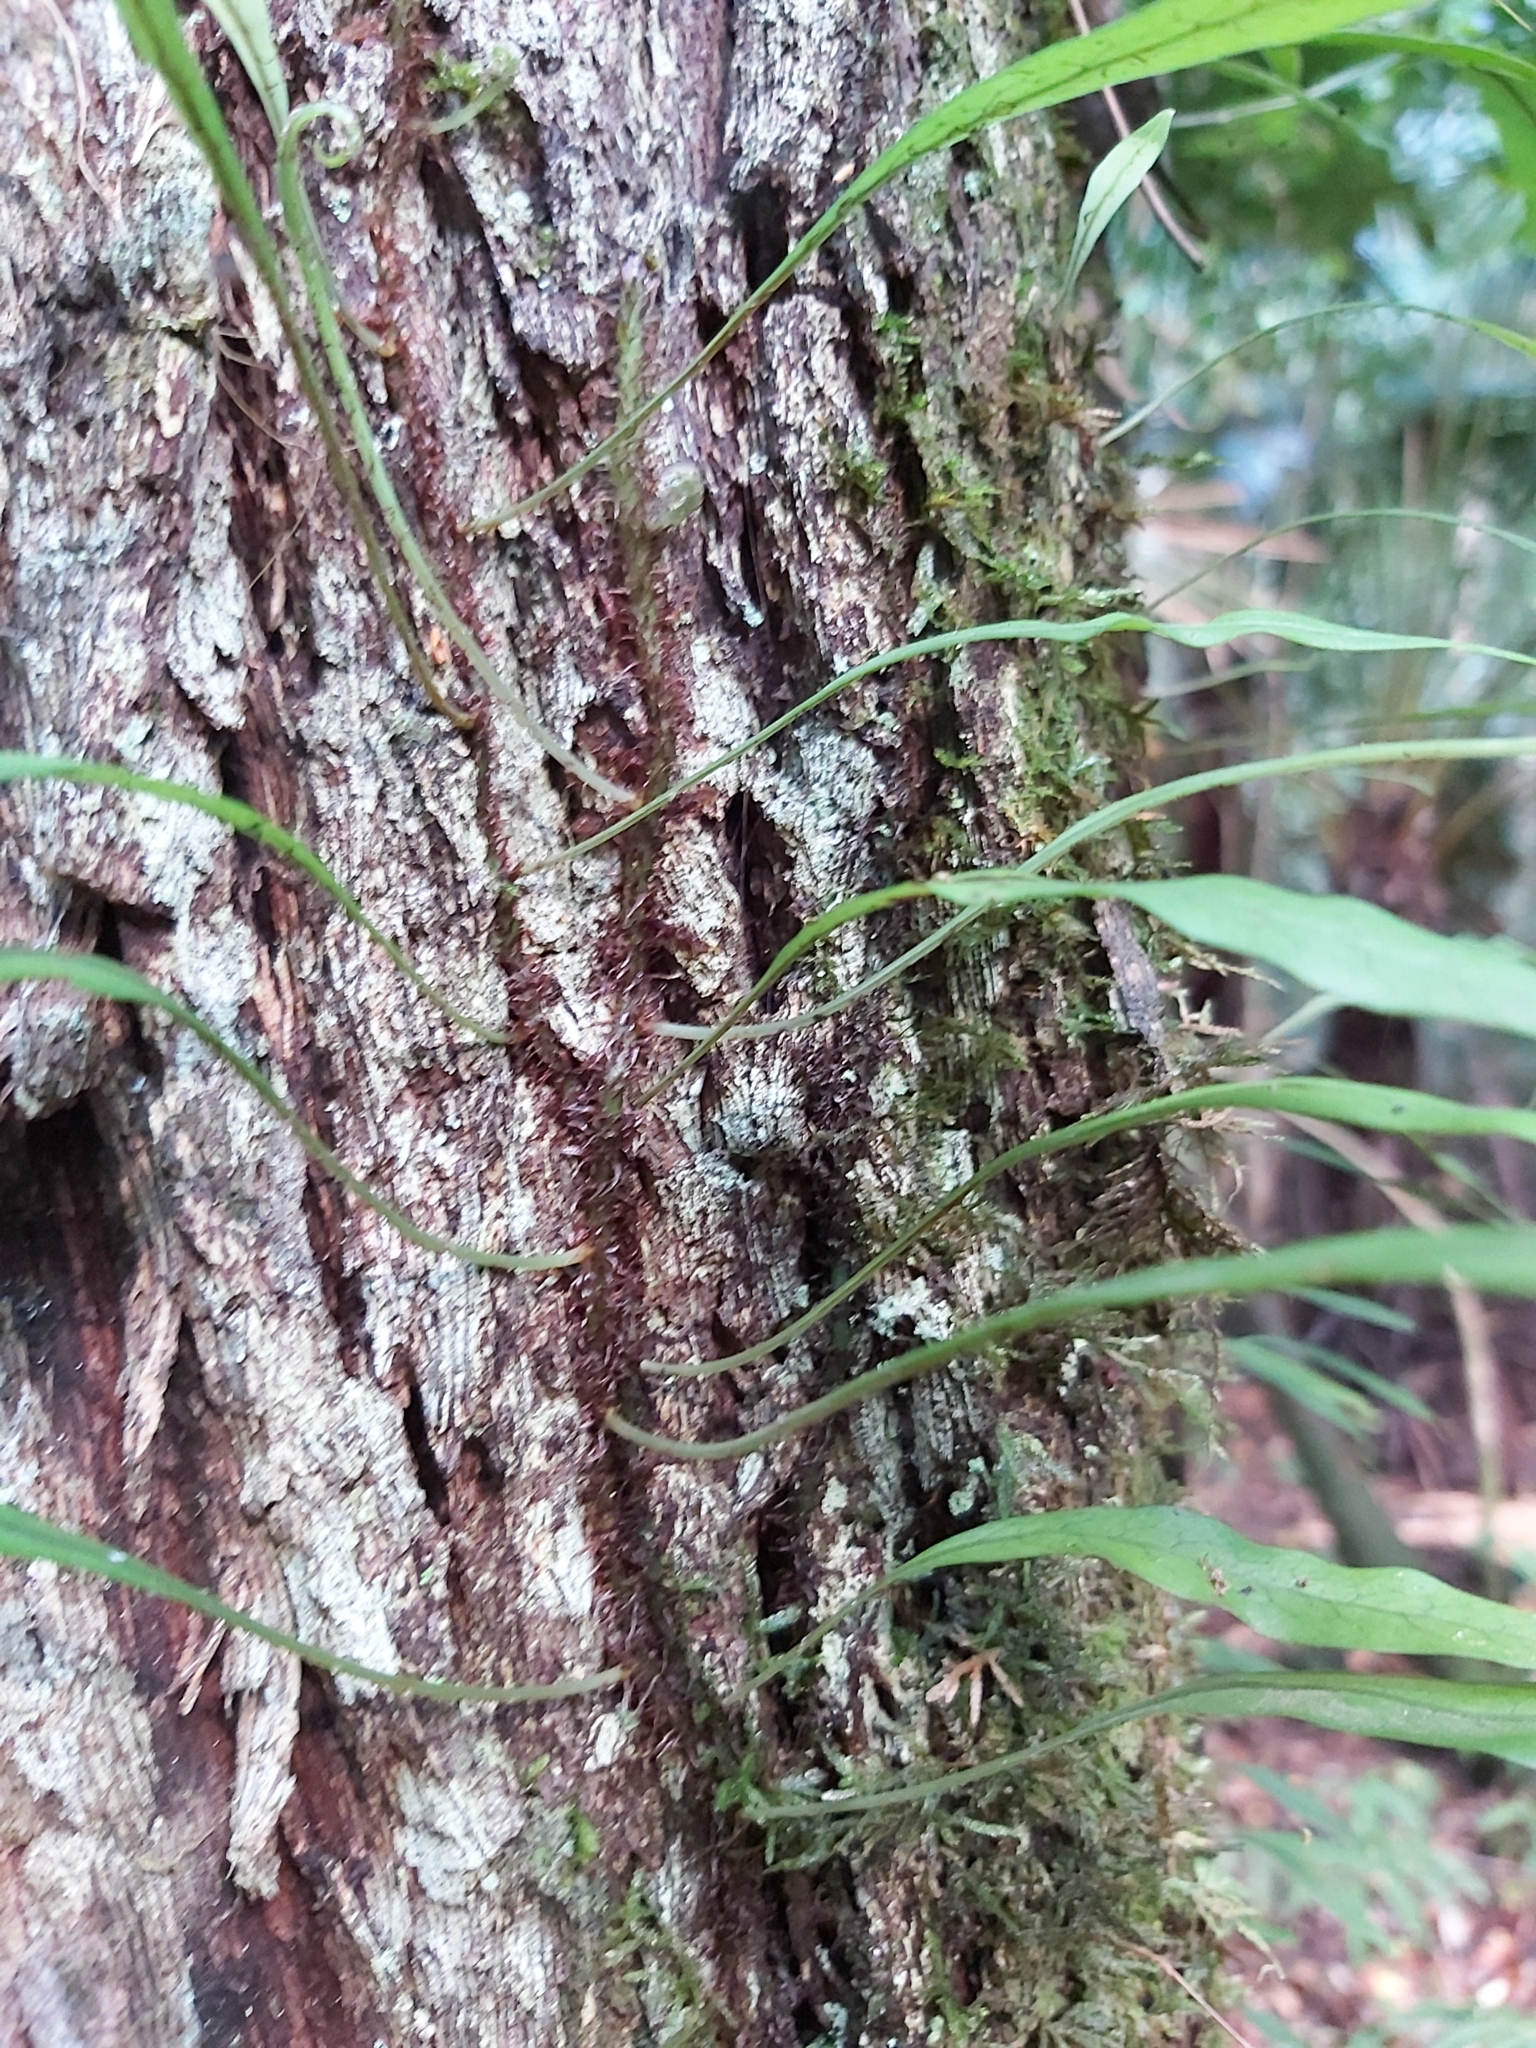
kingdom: Plantae
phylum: Tracheophyta
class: Polypodiopsida
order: Polypodiales
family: Polypodiaceae
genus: Lecanopteris
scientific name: Lecanopteris scandens
